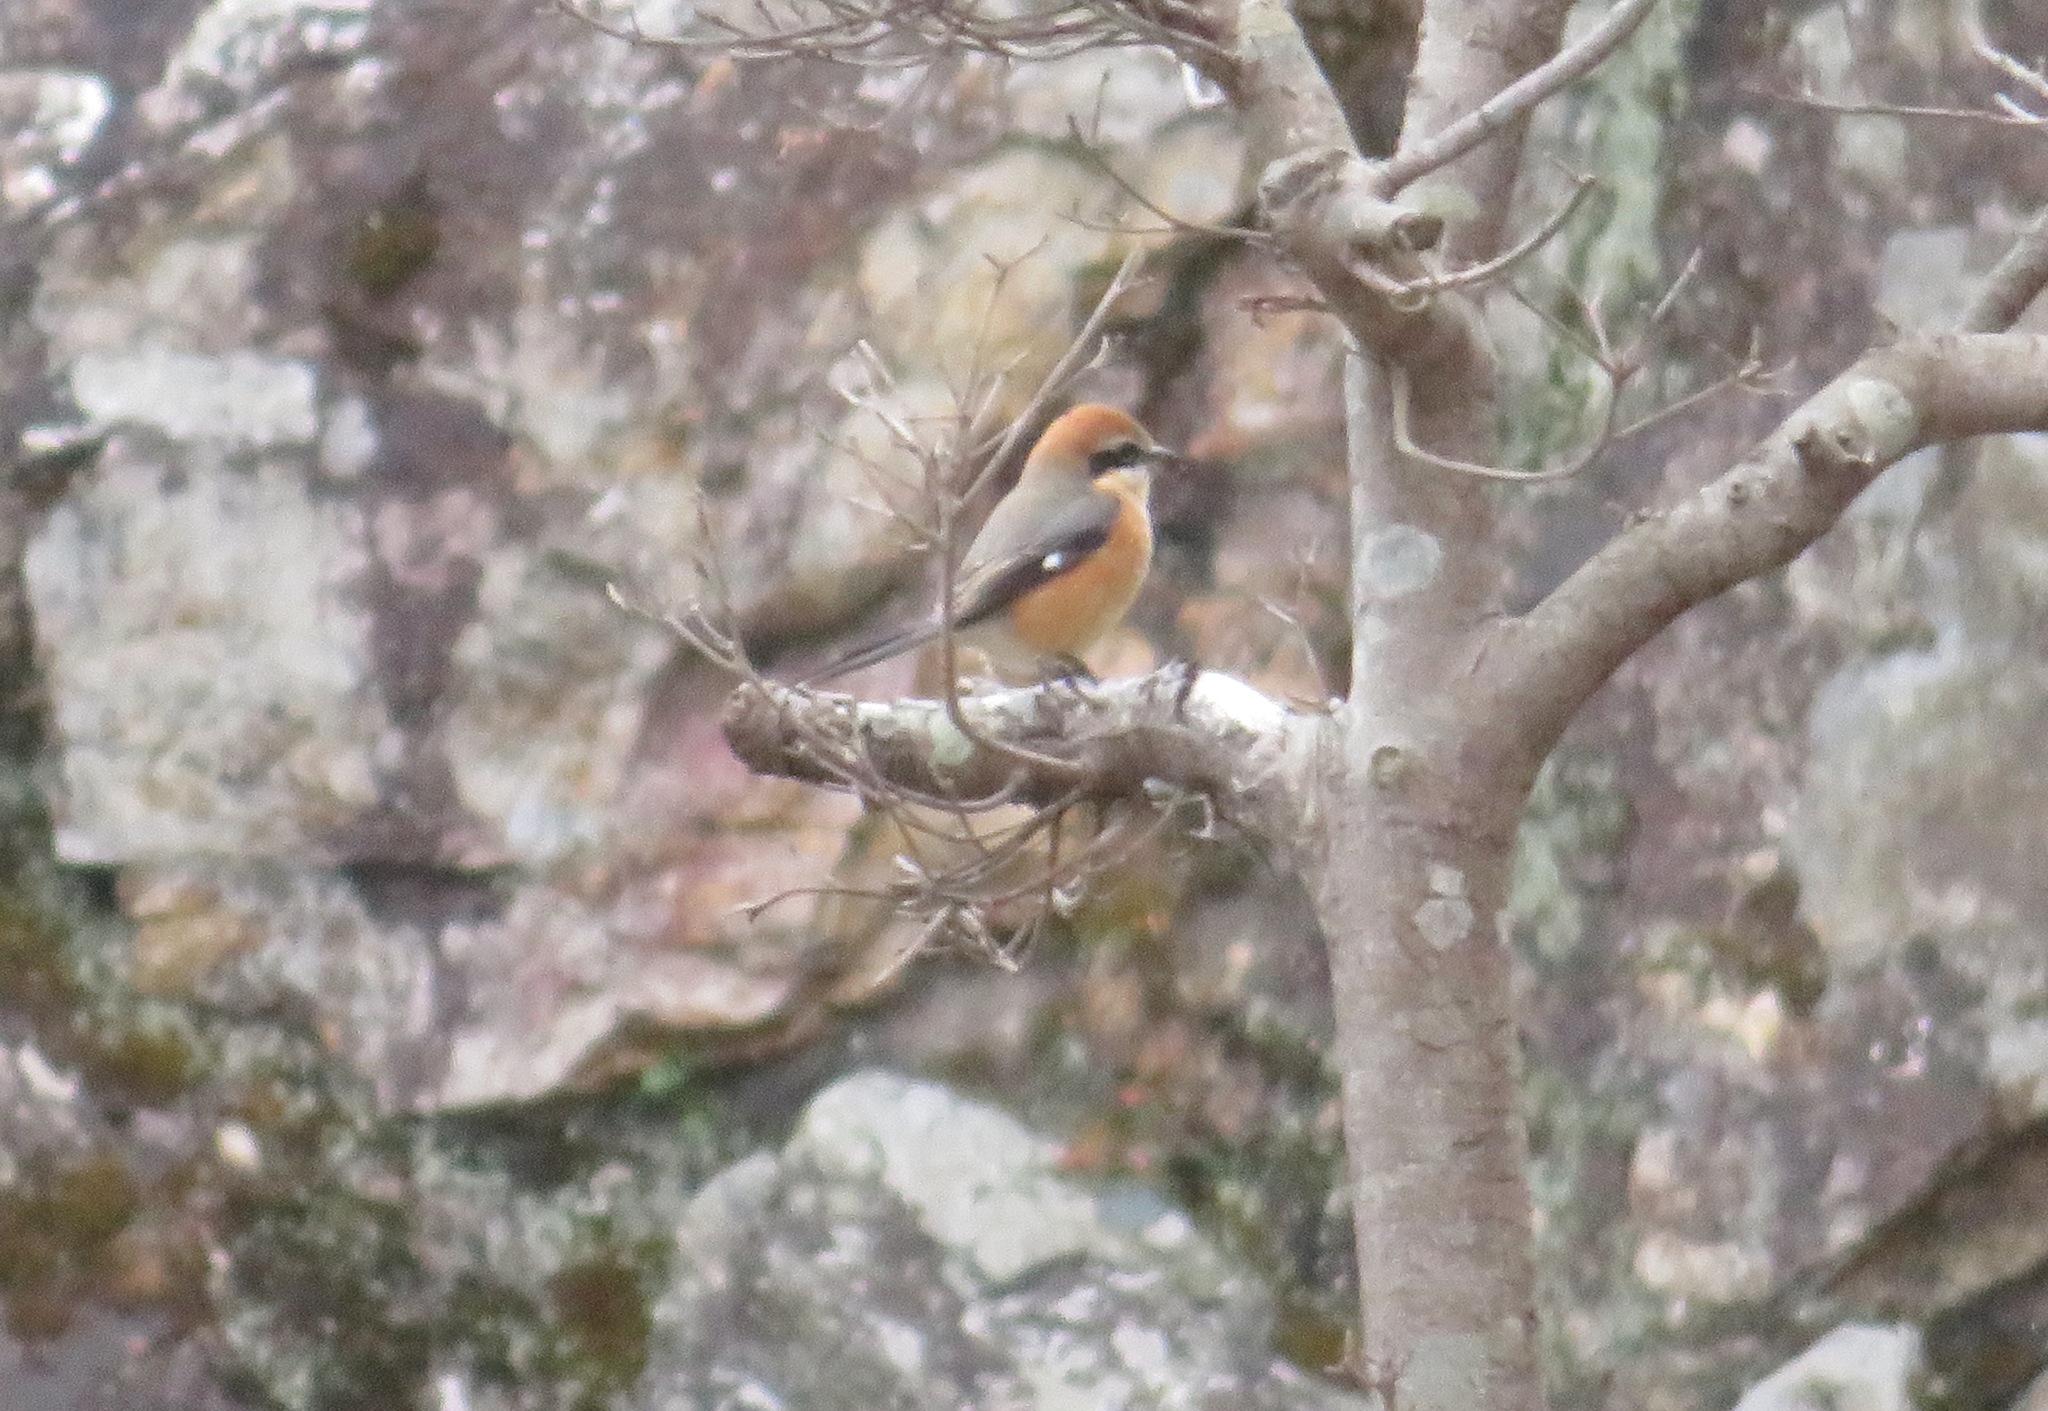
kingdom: Animalia
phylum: Chordata
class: Aves
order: Passeriformes
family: Laniidae
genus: Lanius
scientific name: Lanius bucephalus
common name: Bull-headed shrike
